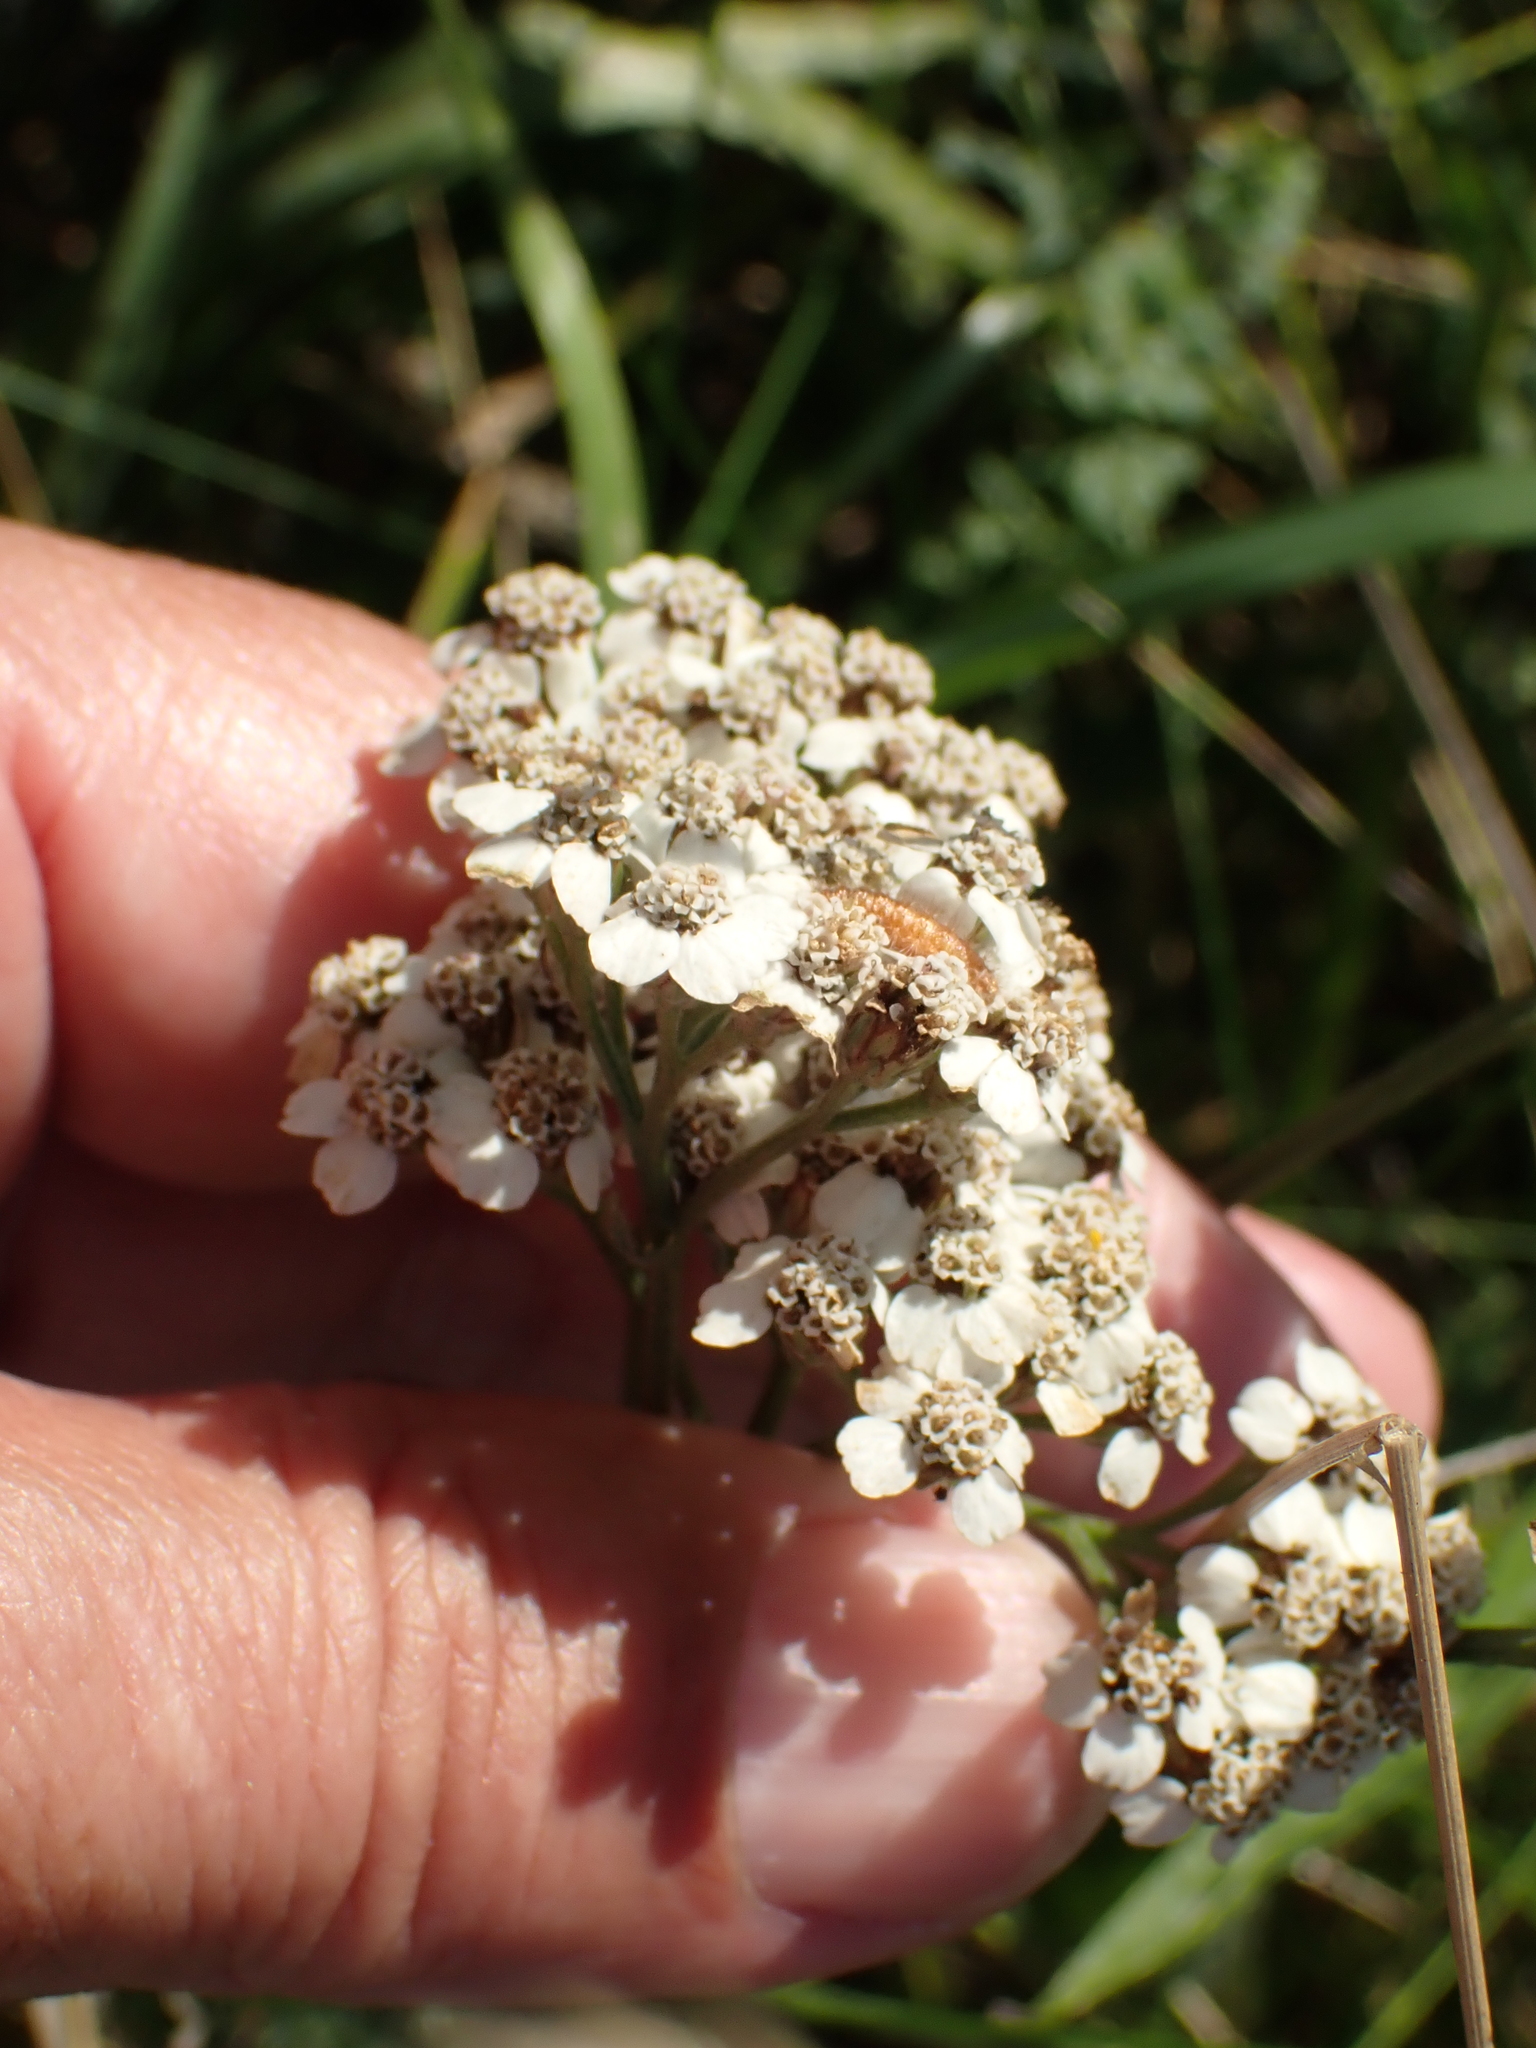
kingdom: Plantae
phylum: Tracheophyta
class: Magnoliopsida
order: Asterales
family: Asteraceae
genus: Achillea
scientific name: Achillea millefolium
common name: Yarrow
